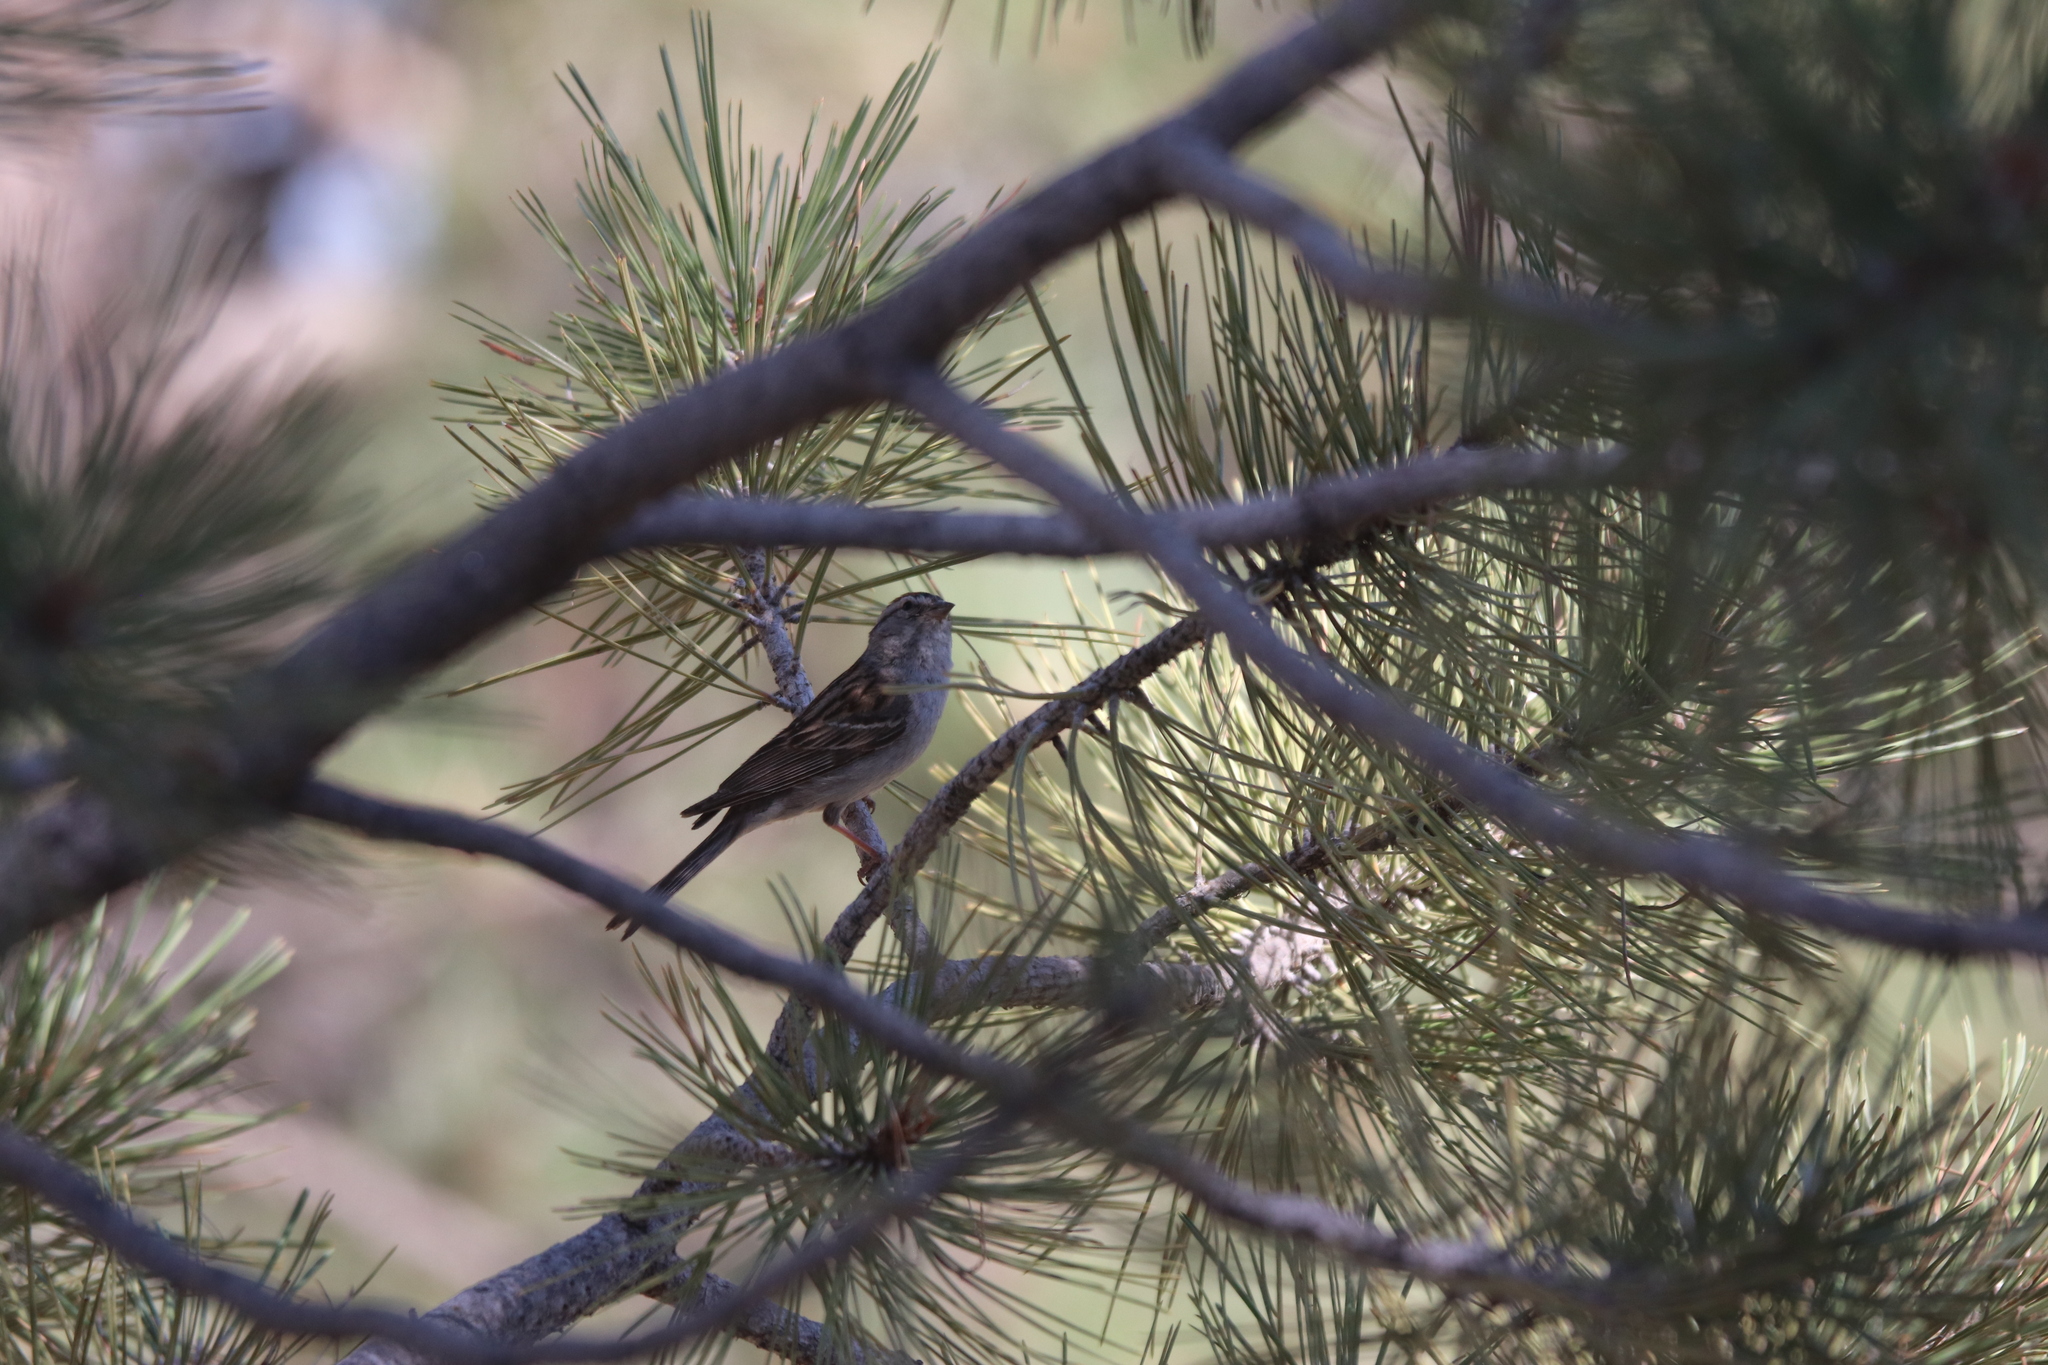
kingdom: Animalia
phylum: Chordata
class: Aves
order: Passeriformes
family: Passerellidae
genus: Spizella
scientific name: Spizella passerina
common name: Chipping sparrow
